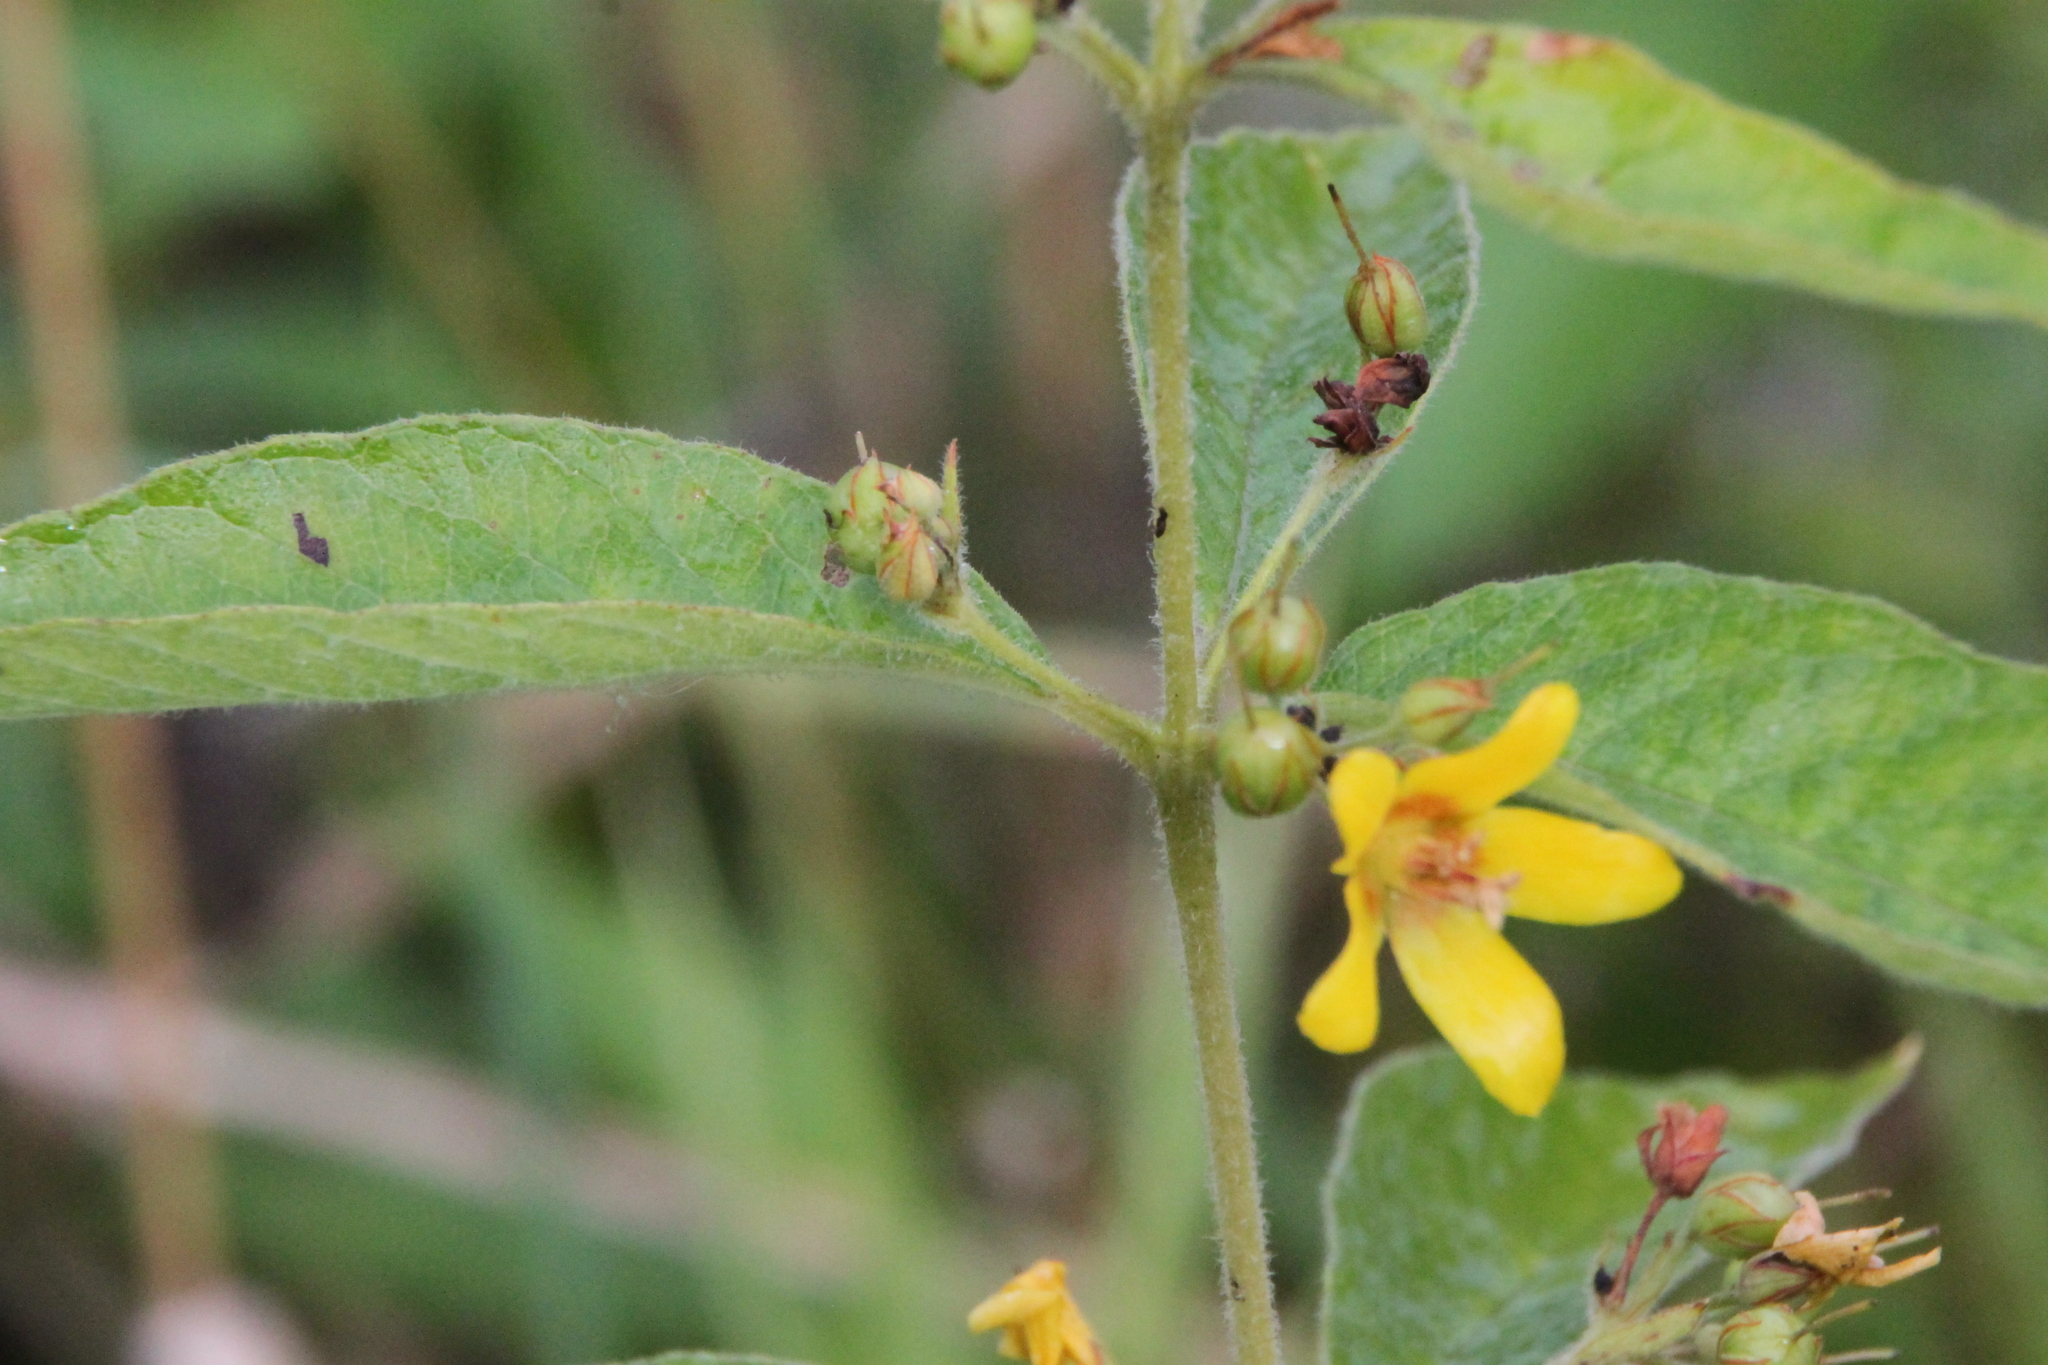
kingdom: Plantae
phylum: Tracheophyta
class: Magnoliopsida
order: Ericales
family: Primulaceae
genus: Lysimachia
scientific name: Lysimachia vulgaris
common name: Yellow loosestrife
